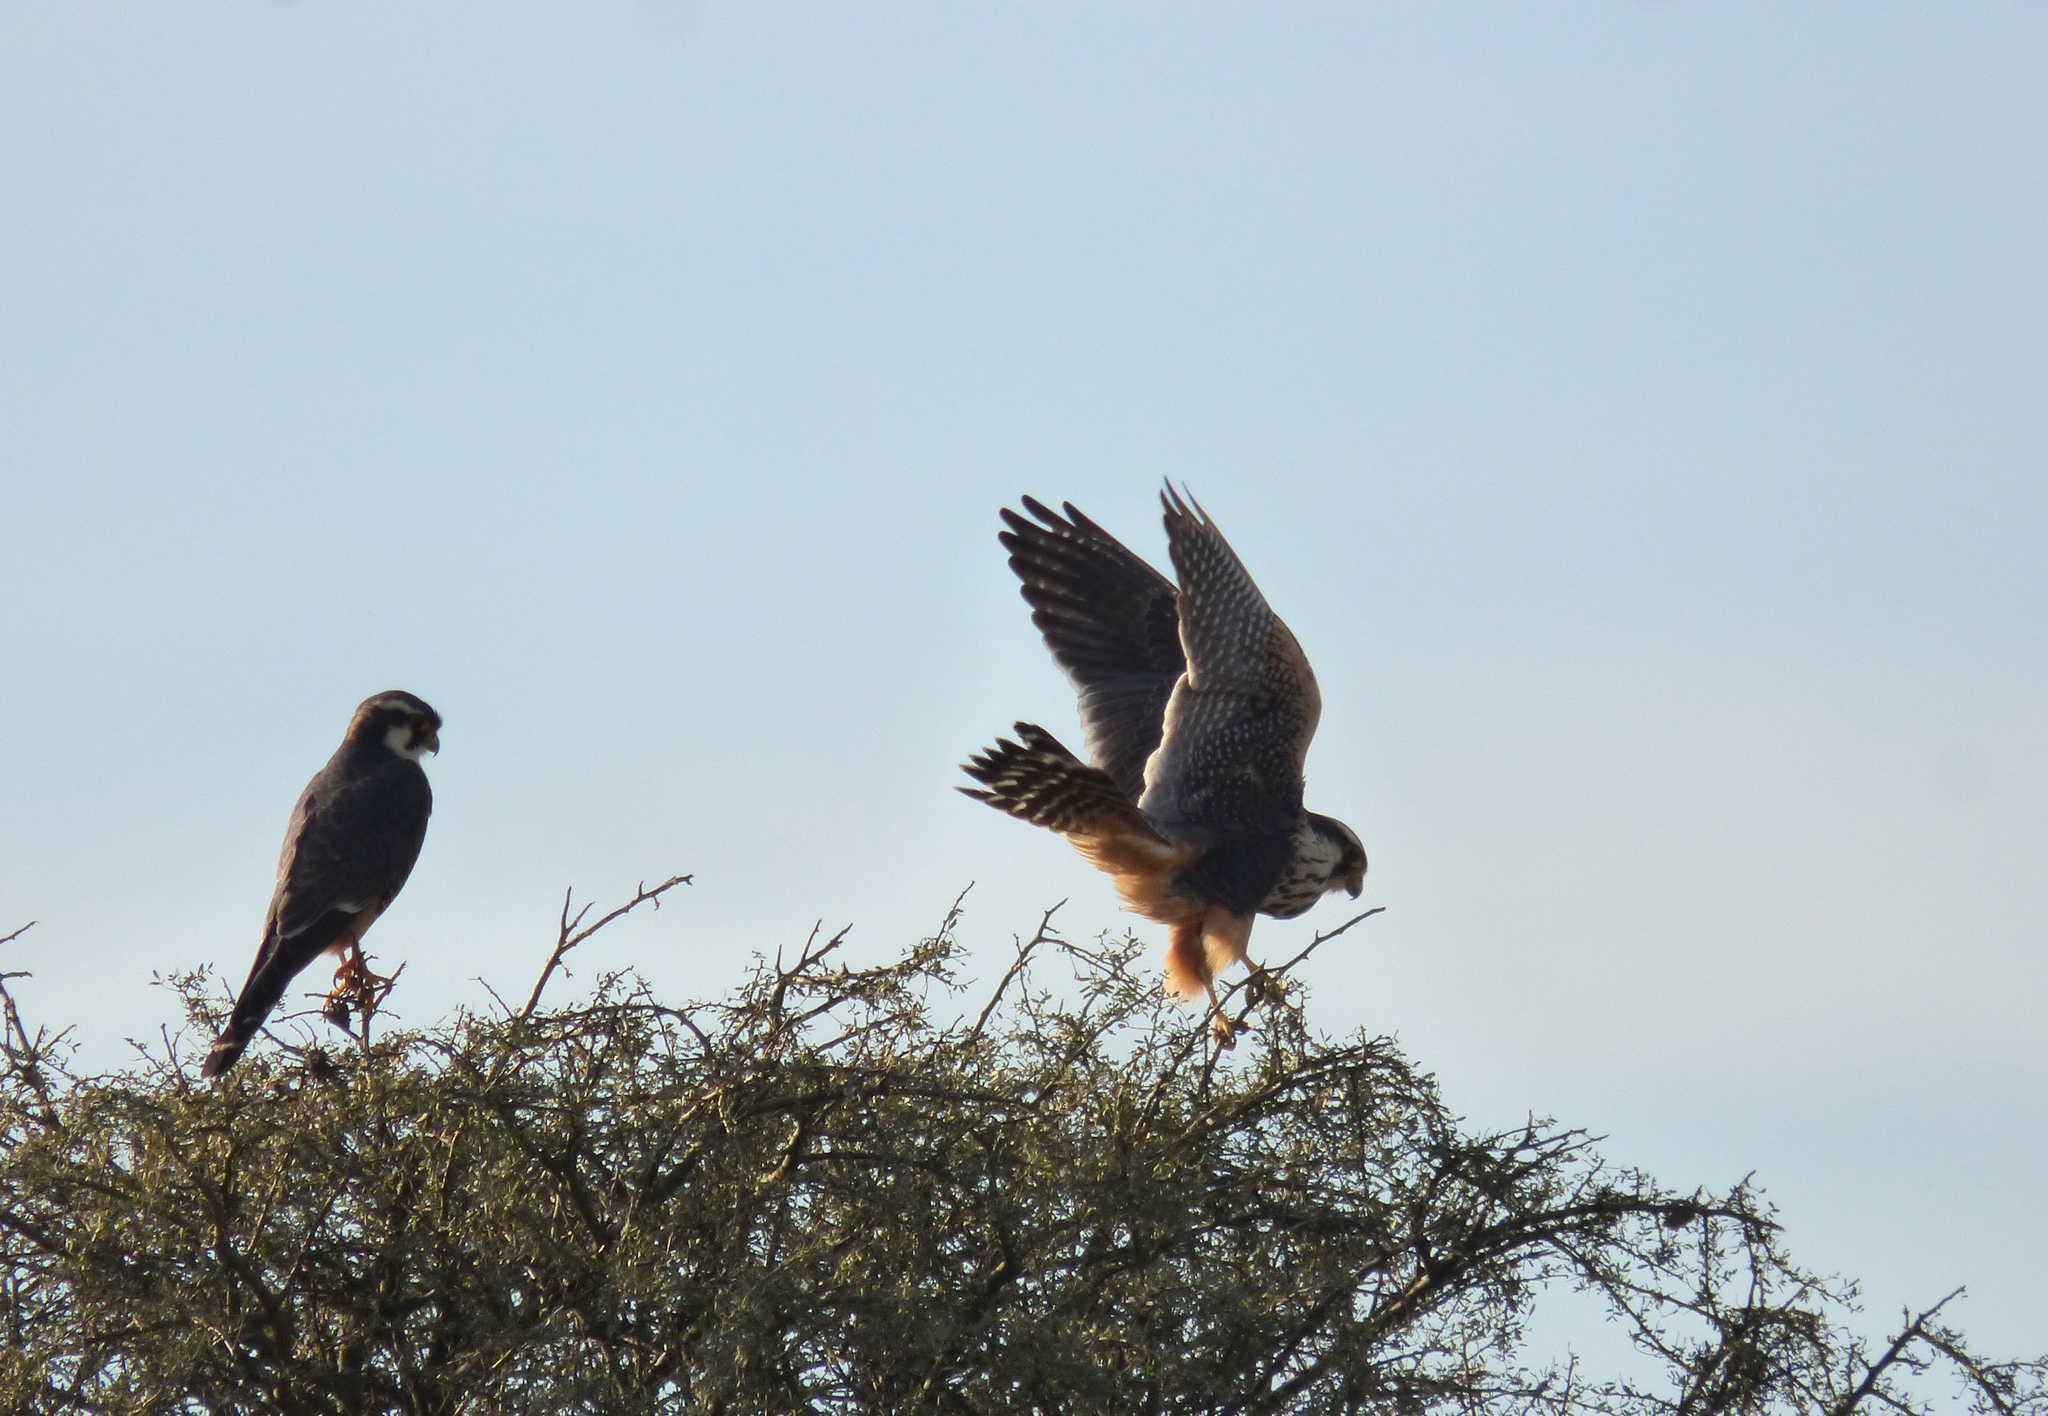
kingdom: Animalia
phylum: Chordata
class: Aves
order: Falconiformes
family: Falconidae
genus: Falco
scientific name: Falco femoralis
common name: Aplomado falcon
